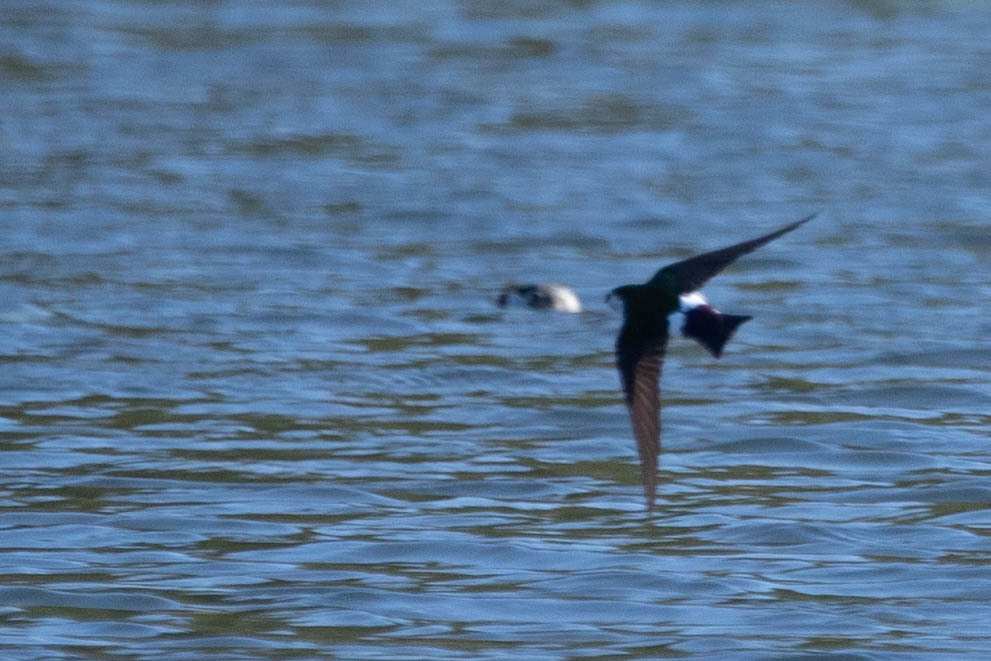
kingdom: Animalia
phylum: Chordata
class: Aves
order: Passeriformes
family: Hirundinidae
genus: Tachycineta
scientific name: Tachycineta thalassina
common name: Violet-green swallow
